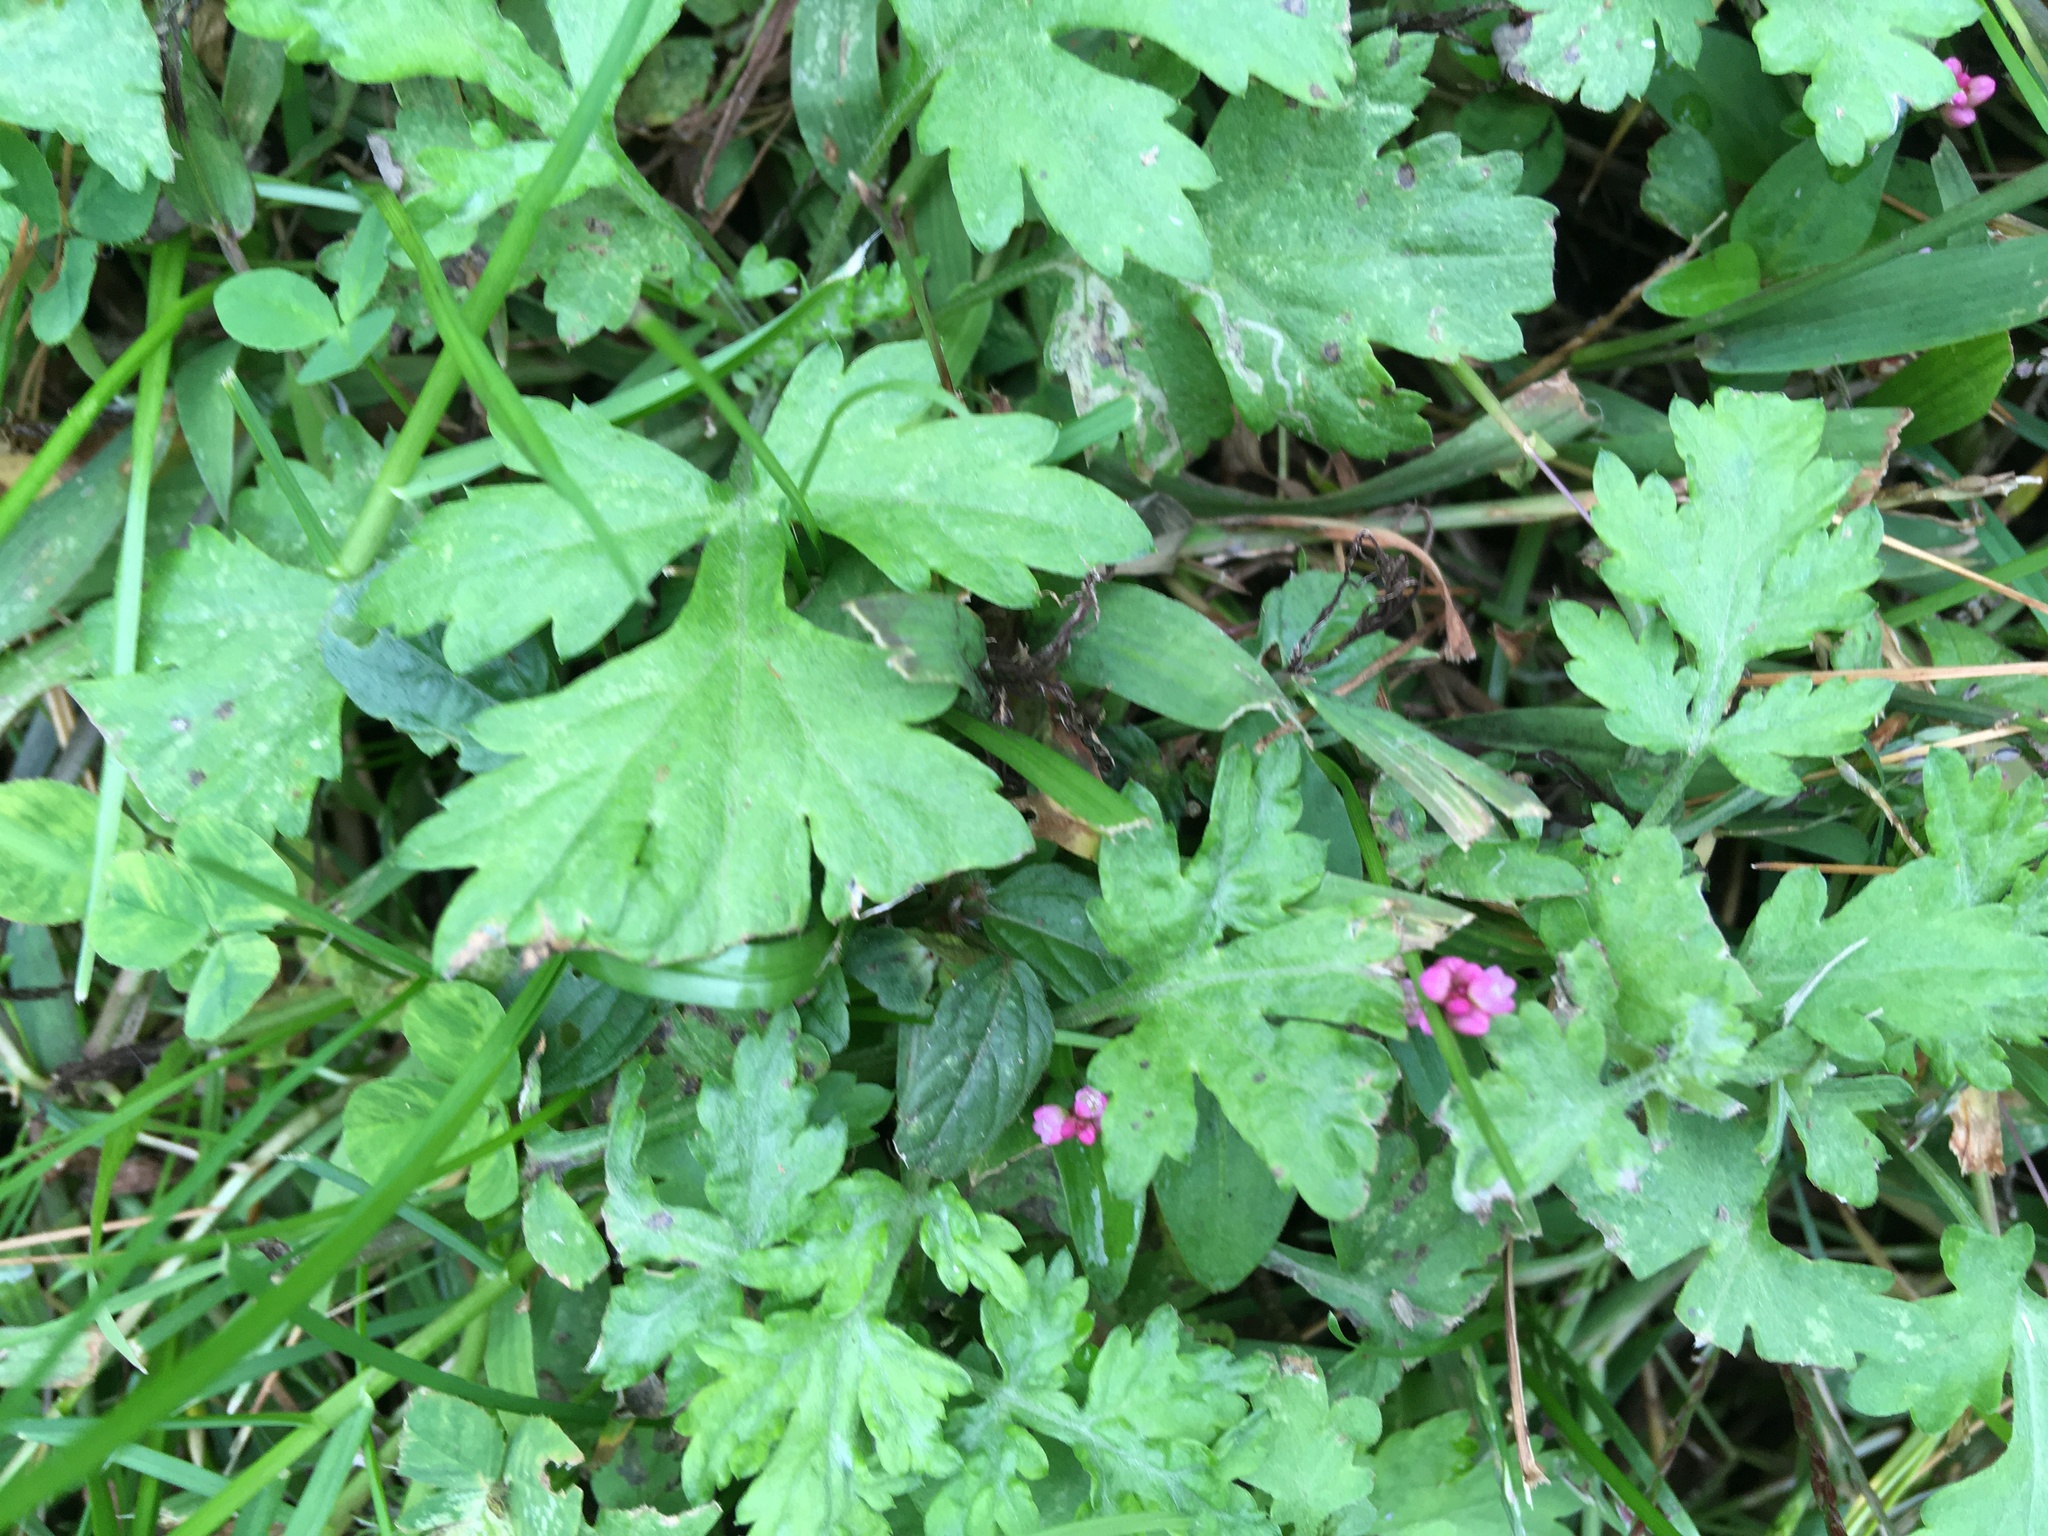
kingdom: Plantae
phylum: Tracheophyta
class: Magnoliopsida
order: Asterales
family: Asteraceae
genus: Artemisia
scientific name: Artemisia vulgaris
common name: Mugwort
